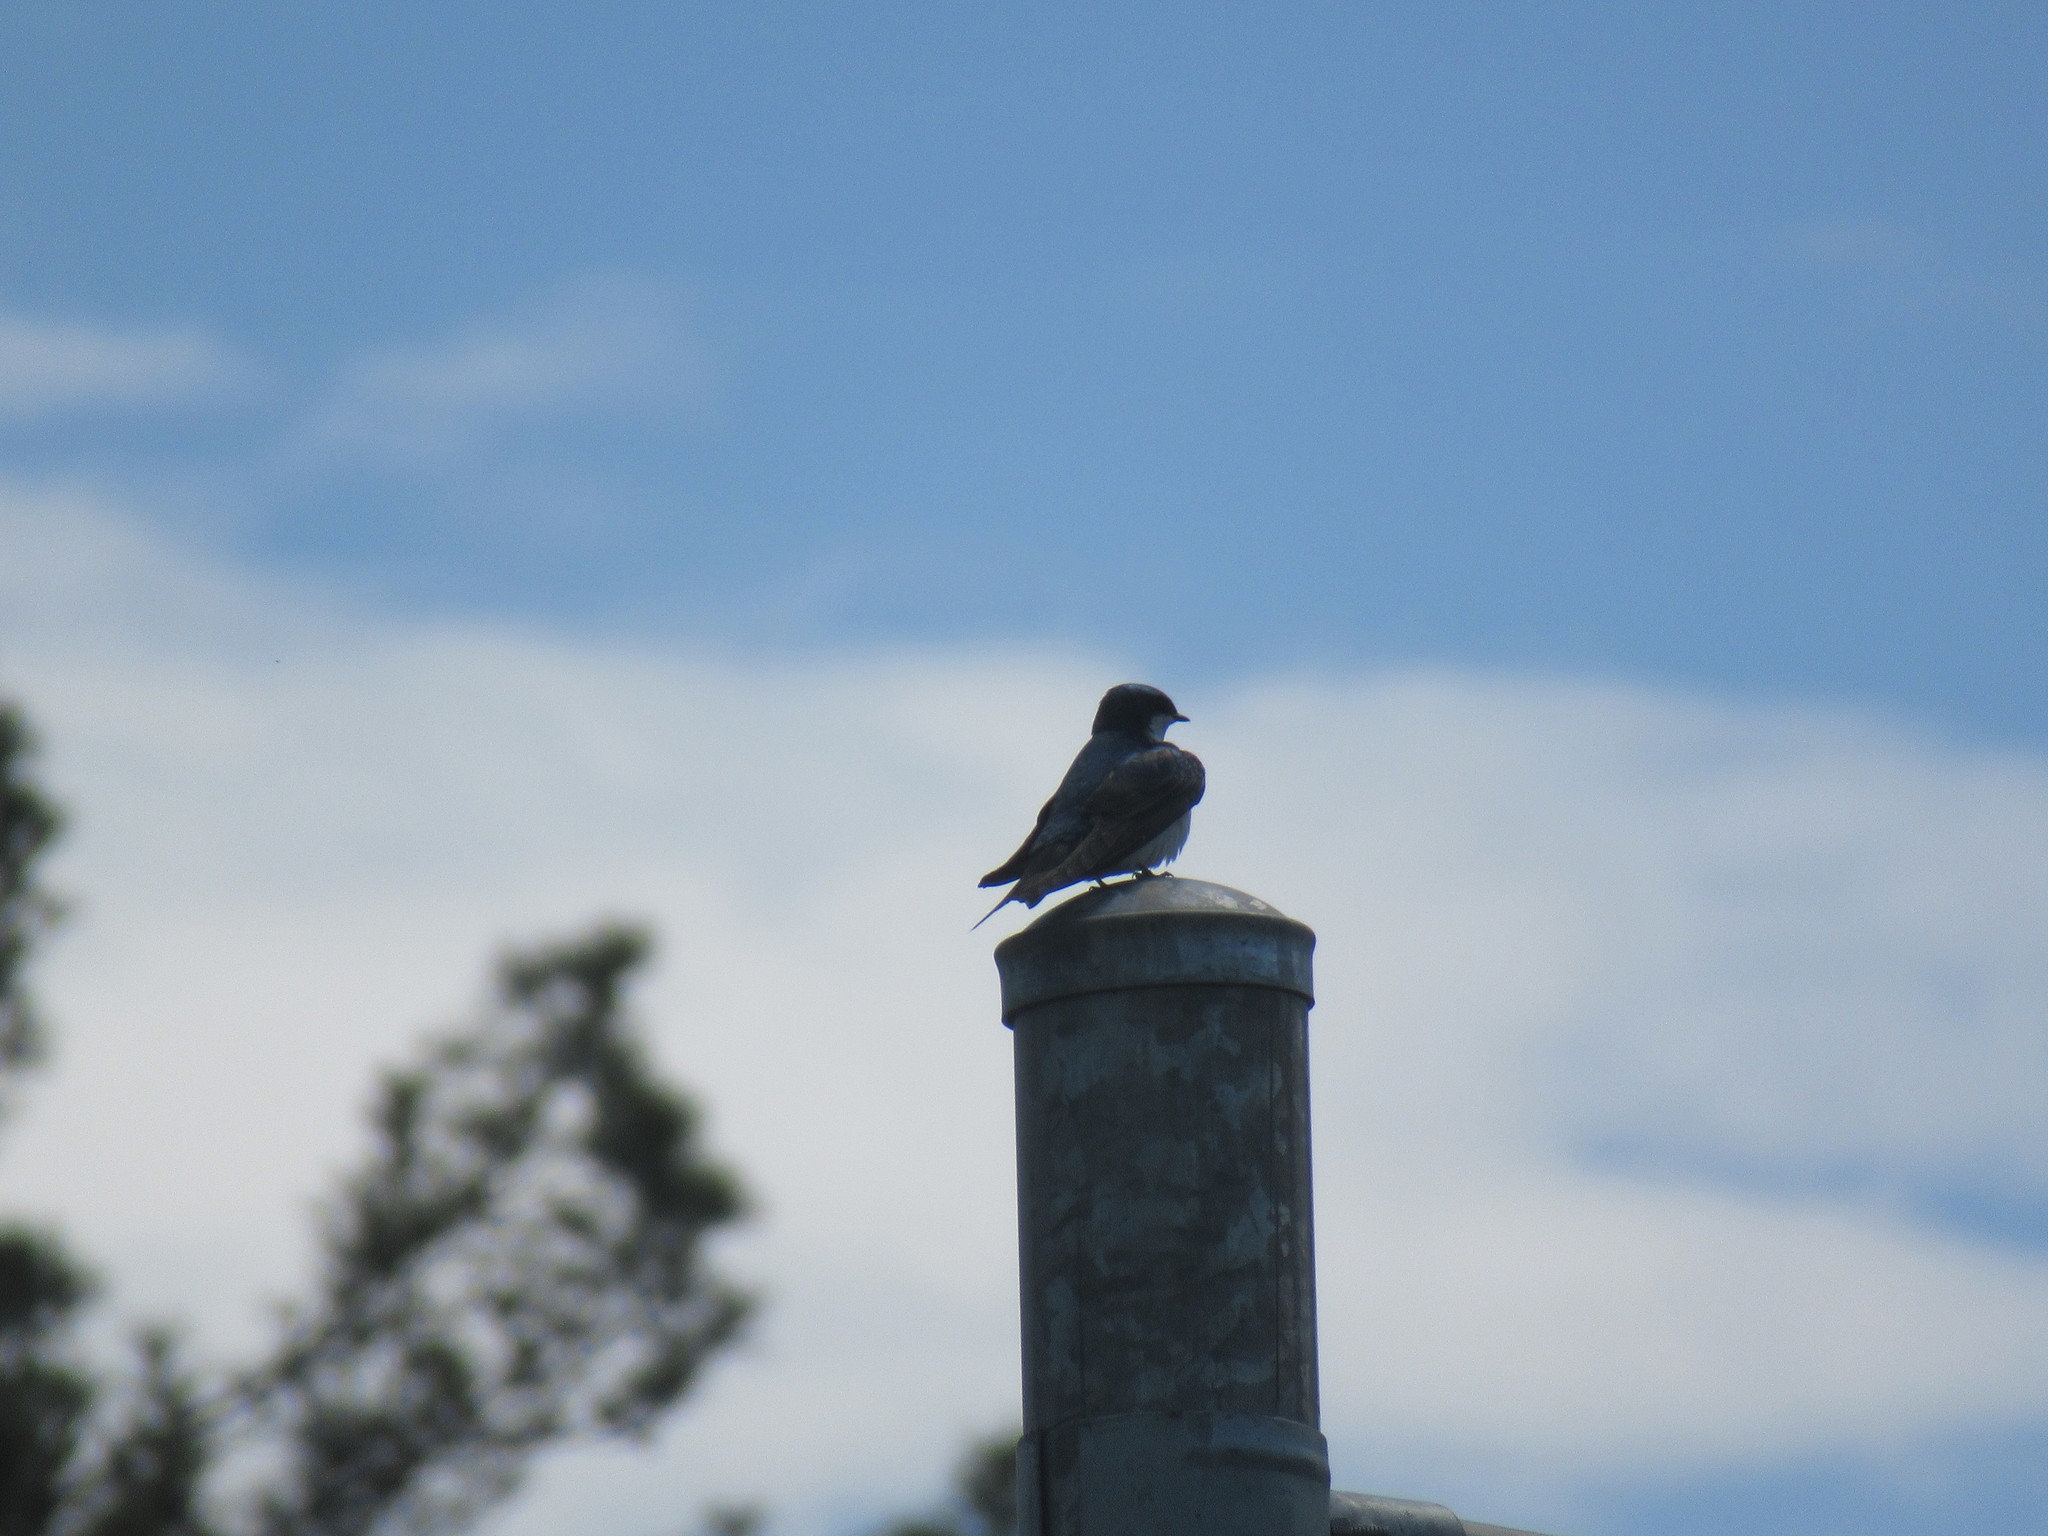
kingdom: Animalia
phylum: Chordata
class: Aves
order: Passeriformes
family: Hirundinidae
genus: Tachycineta
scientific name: Tachycineta bicolor
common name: Tree swallow
